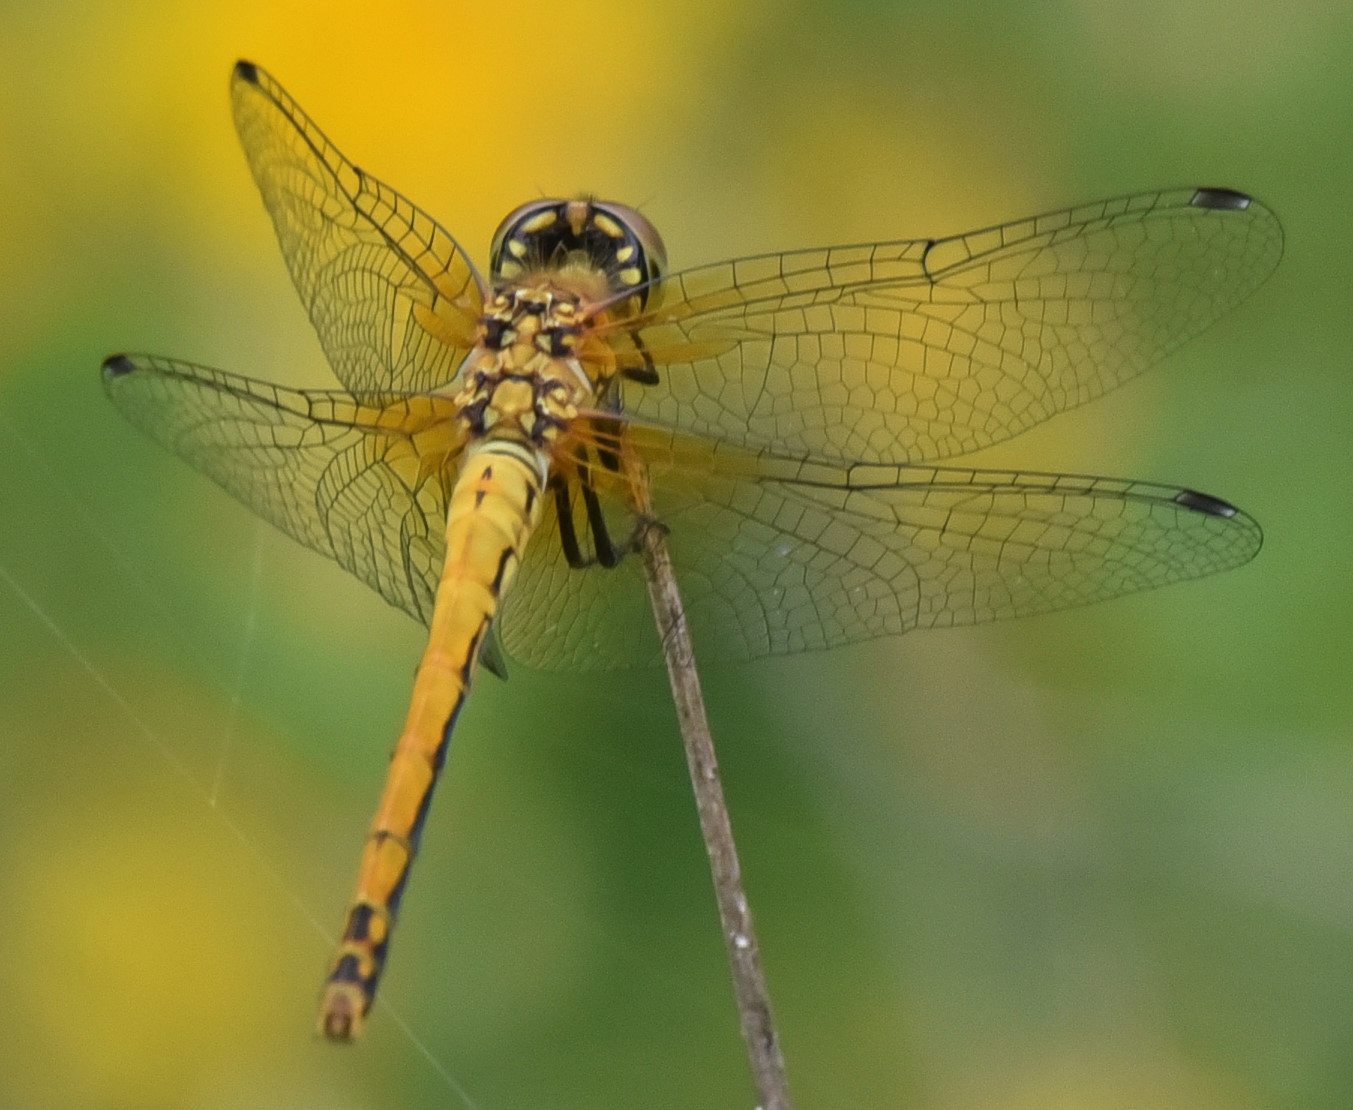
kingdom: Animalia
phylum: Arthropoda
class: Insecta
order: Odonata
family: Libellulidae
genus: Sympetrum
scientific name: Sympetrum semicinctum
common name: Band-winged meadowhawk
